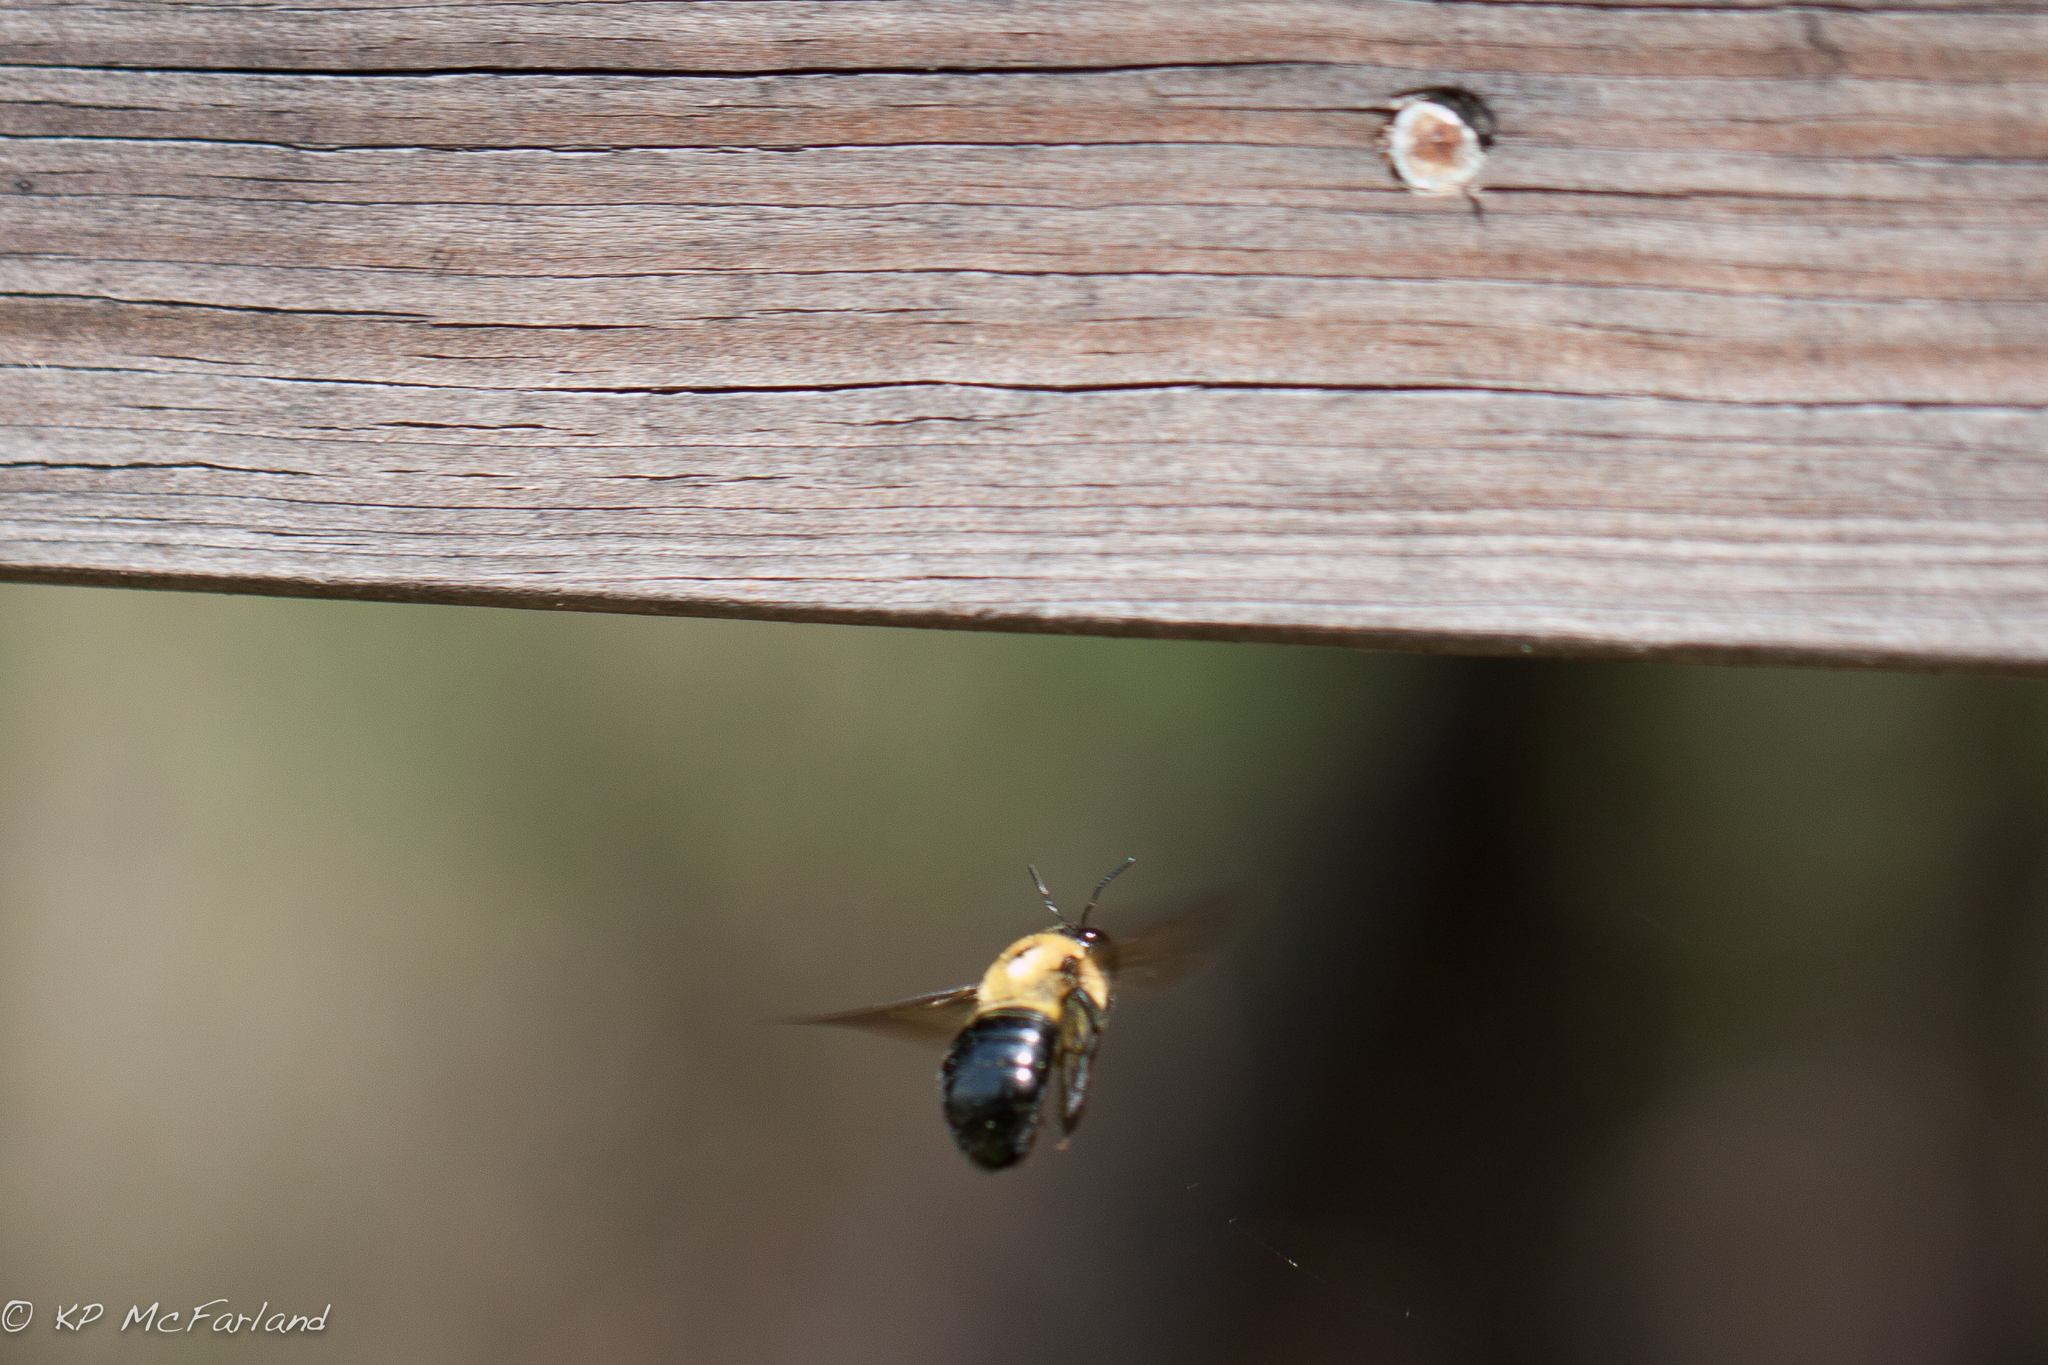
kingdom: Animalia
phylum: Arthropoda
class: Insecta
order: Hymenoptera
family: Apidae
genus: Xylocopa
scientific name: Xylocopa virginica
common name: Carpenter bee
